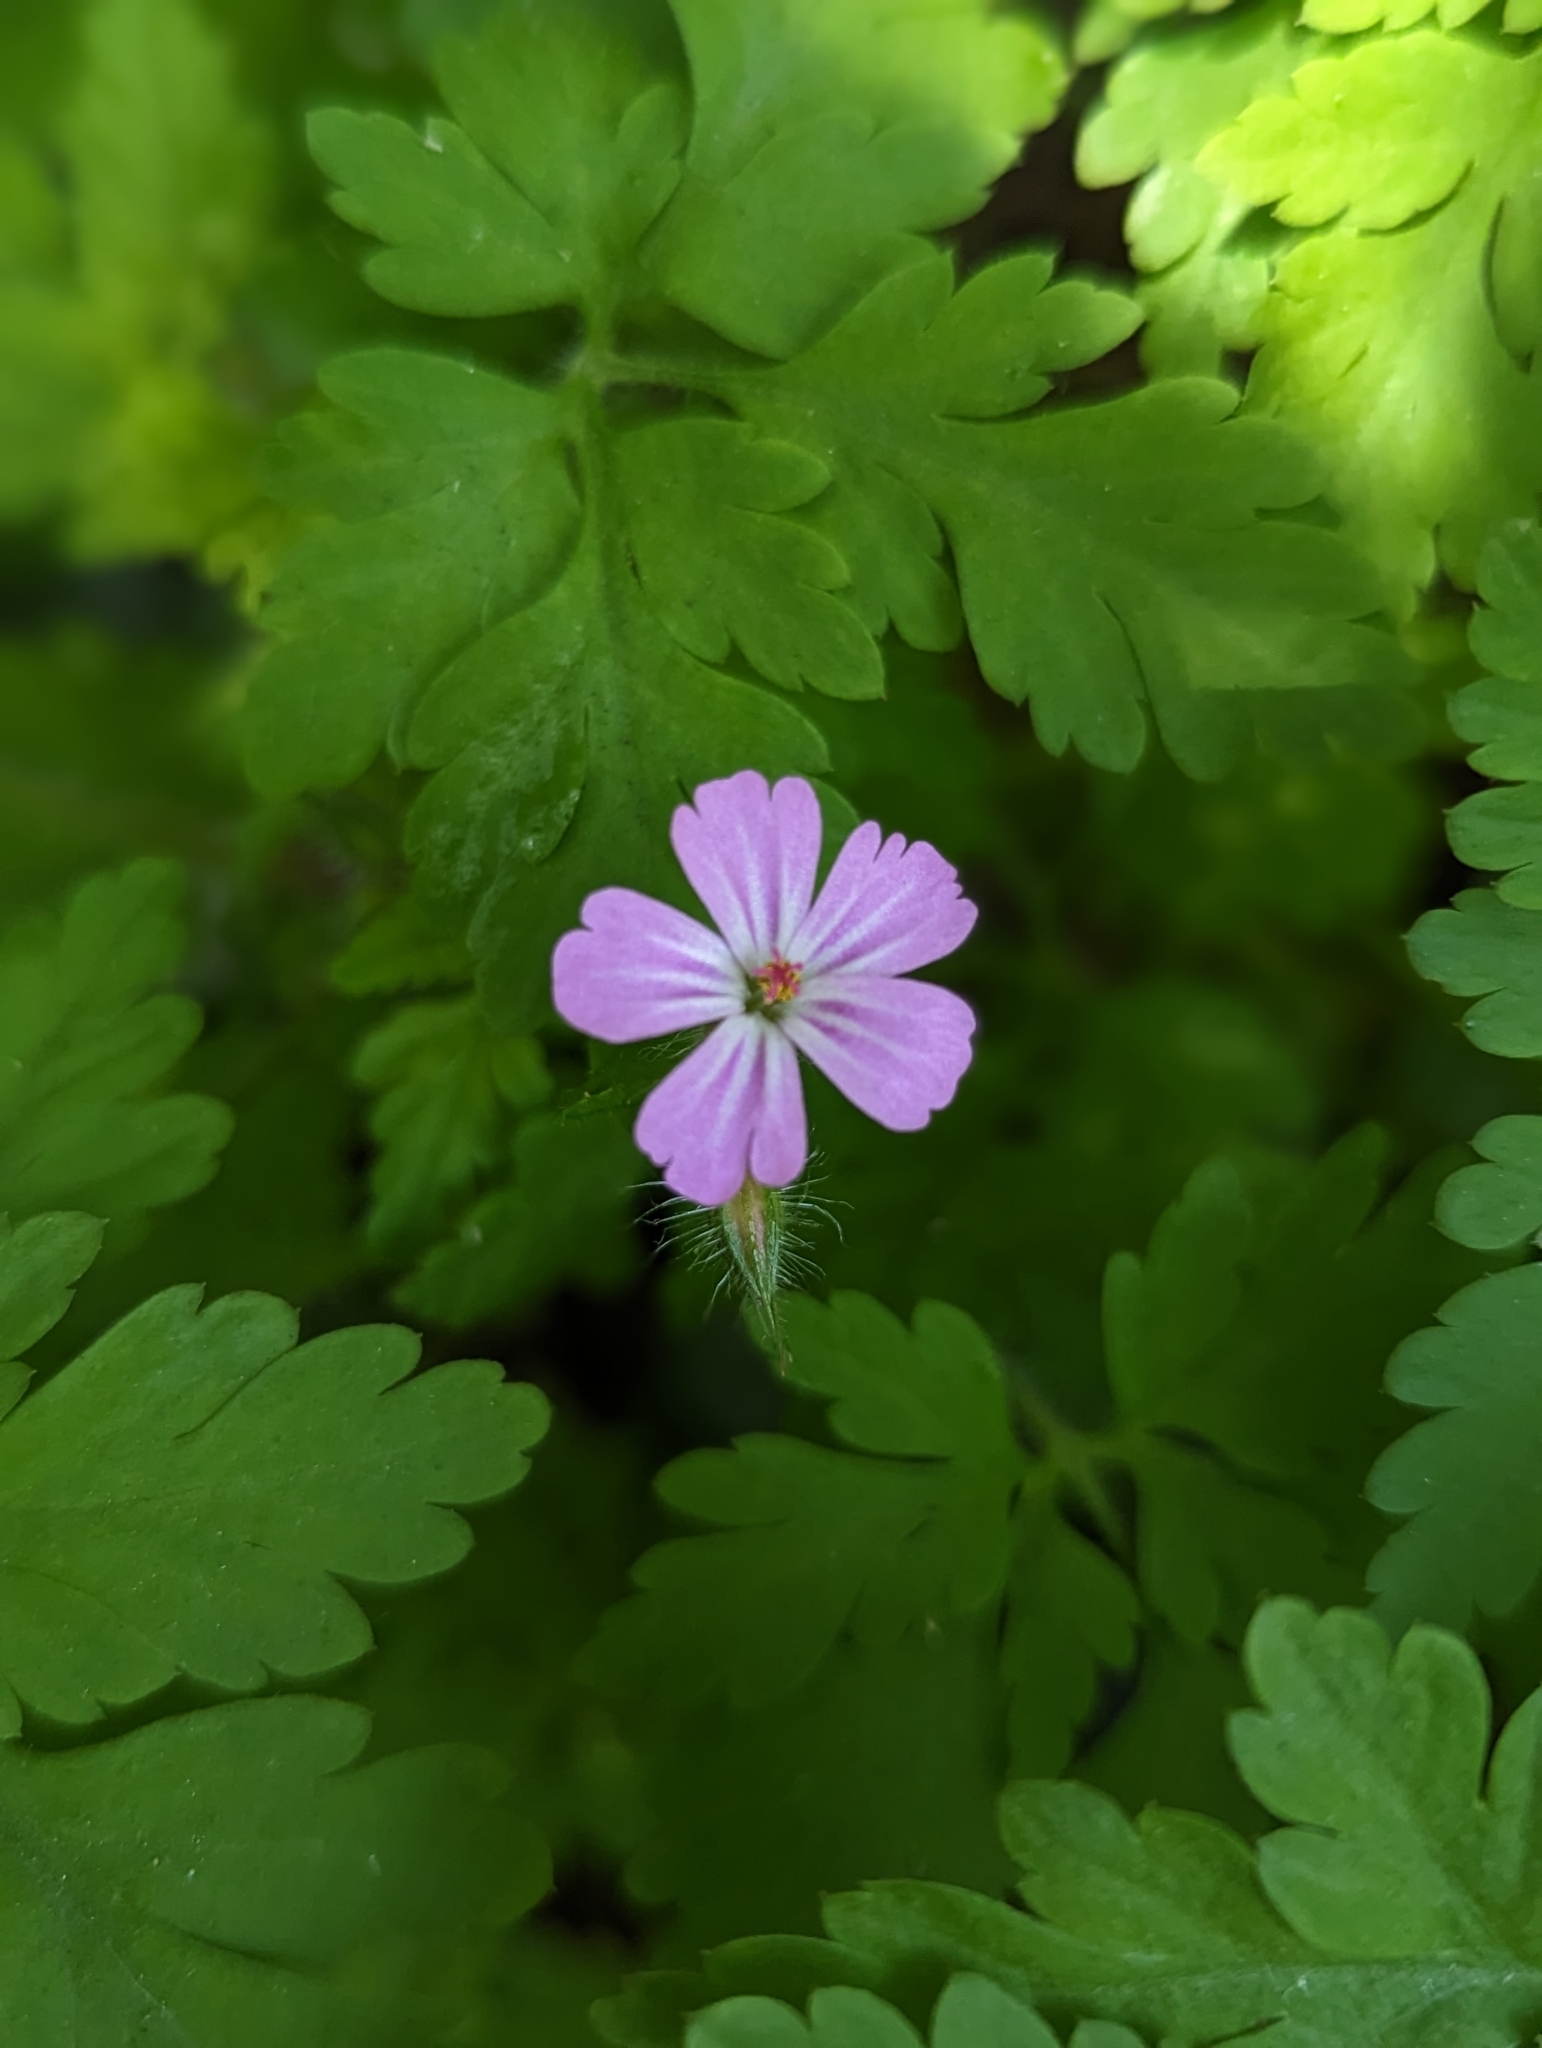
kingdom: Plantae
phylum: Tracheophyta
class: Magnoliopsida
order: Geraniales
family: Geraniaceae
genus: Geranium
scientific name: Geranium robertianum
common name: Herb-robert
